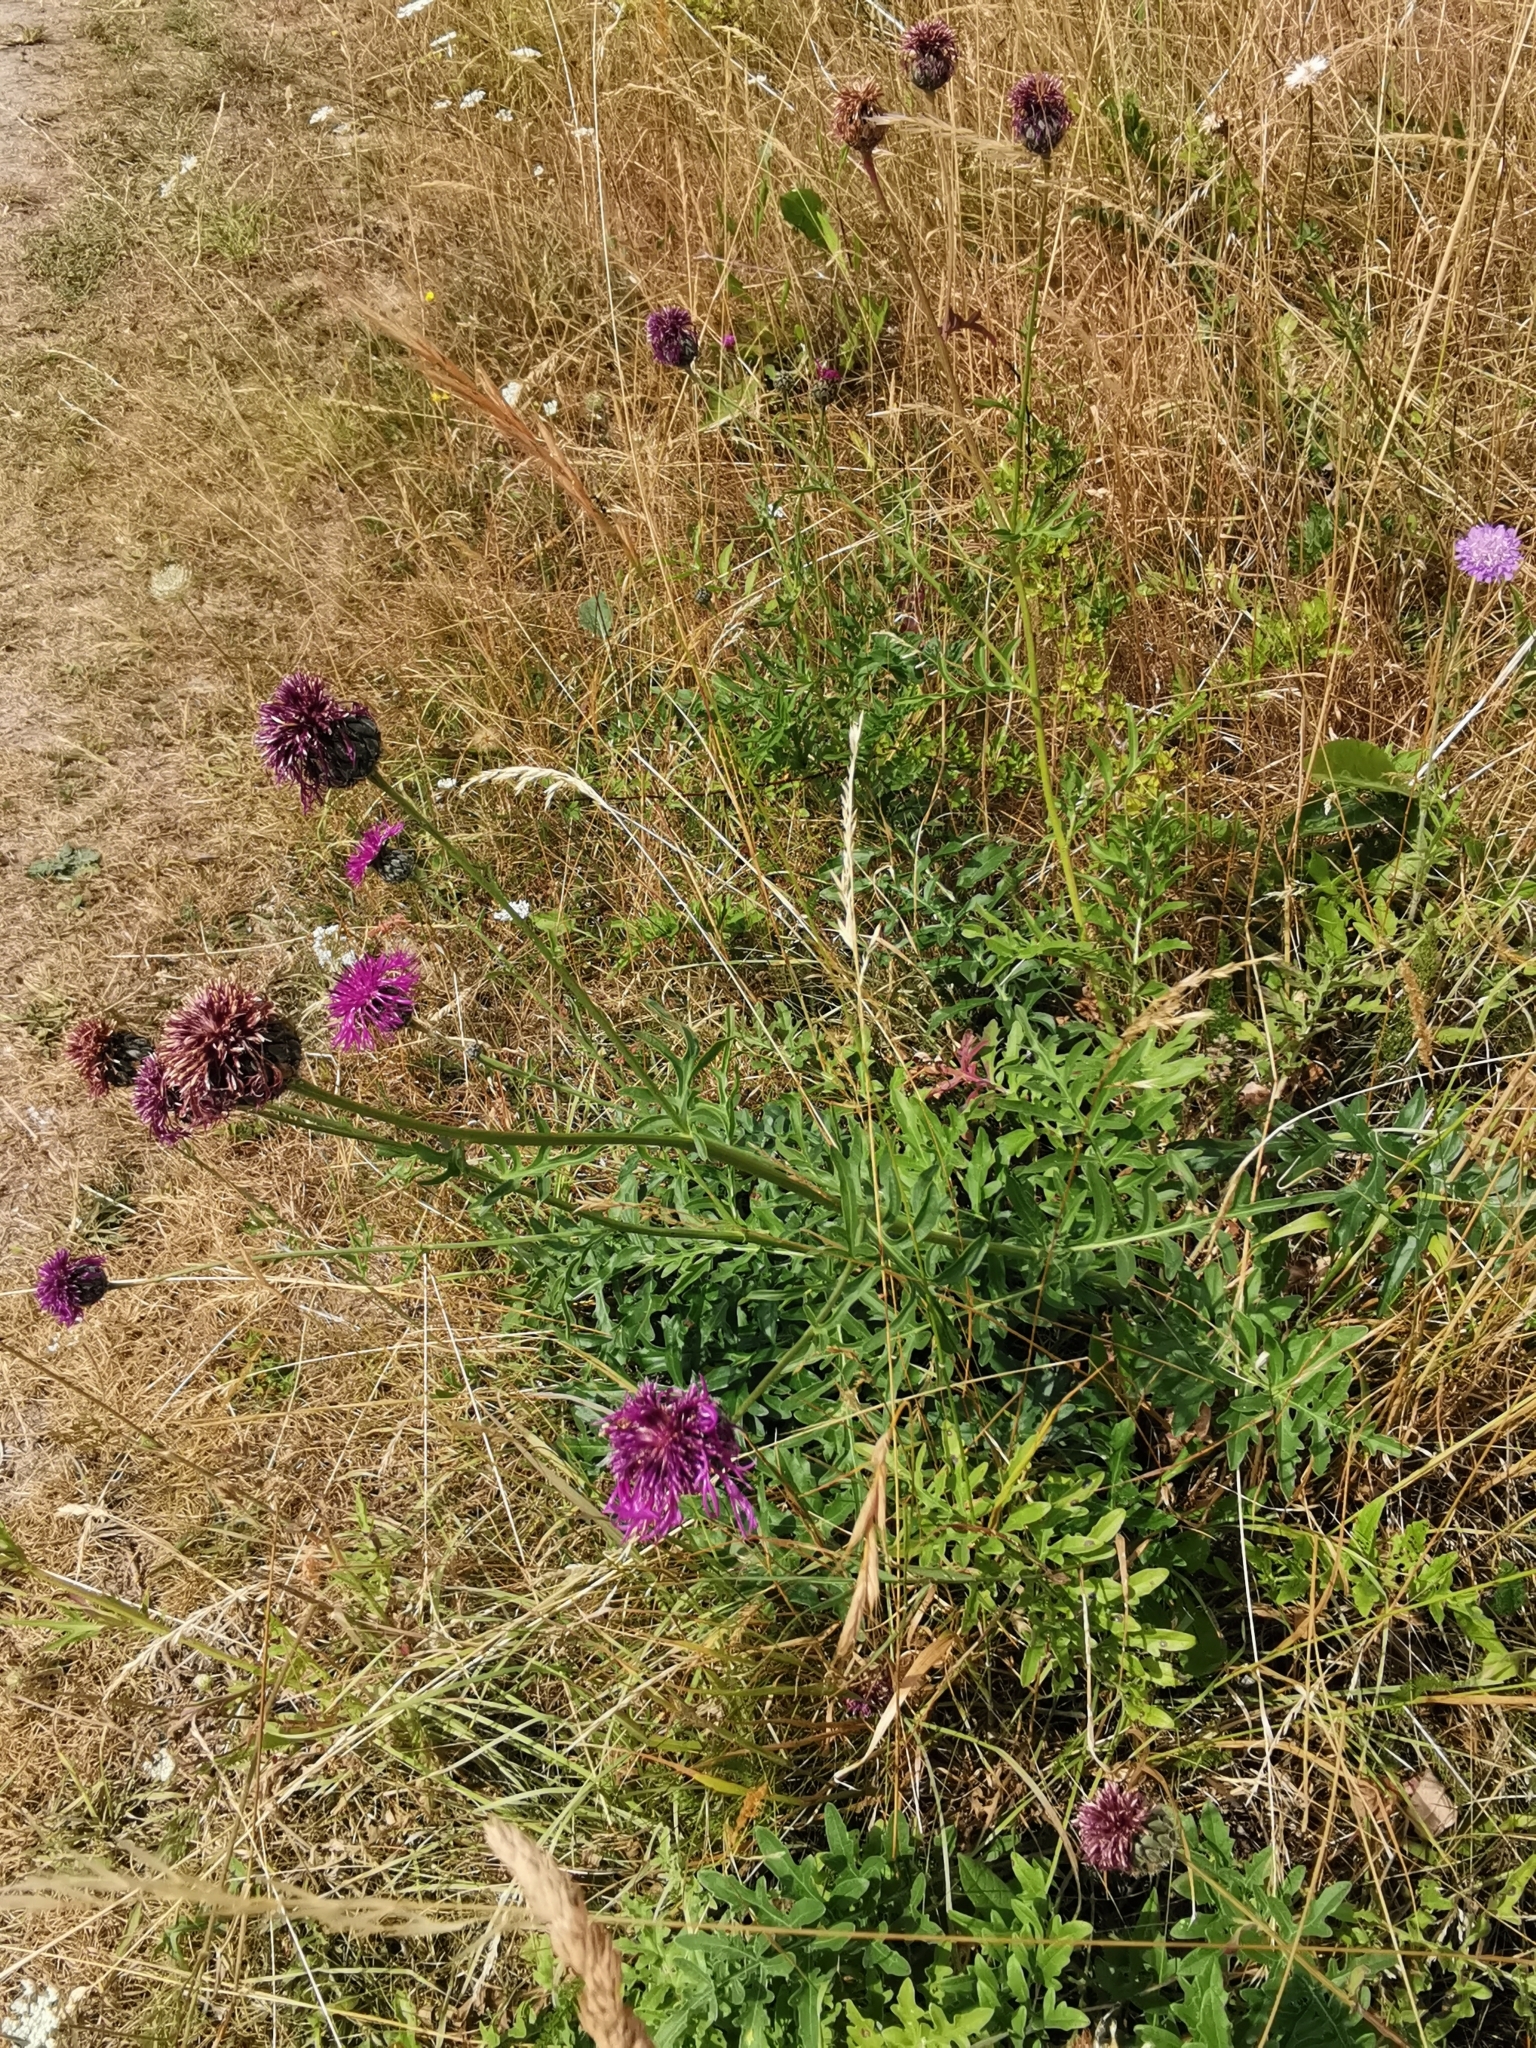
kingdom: Plantae
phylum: Tracheophyta
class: Magnoliopsida
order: Asterales
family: Asteraceae
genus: Centaurea
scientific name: Centaurea scabiosa
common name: Greater knapweed
